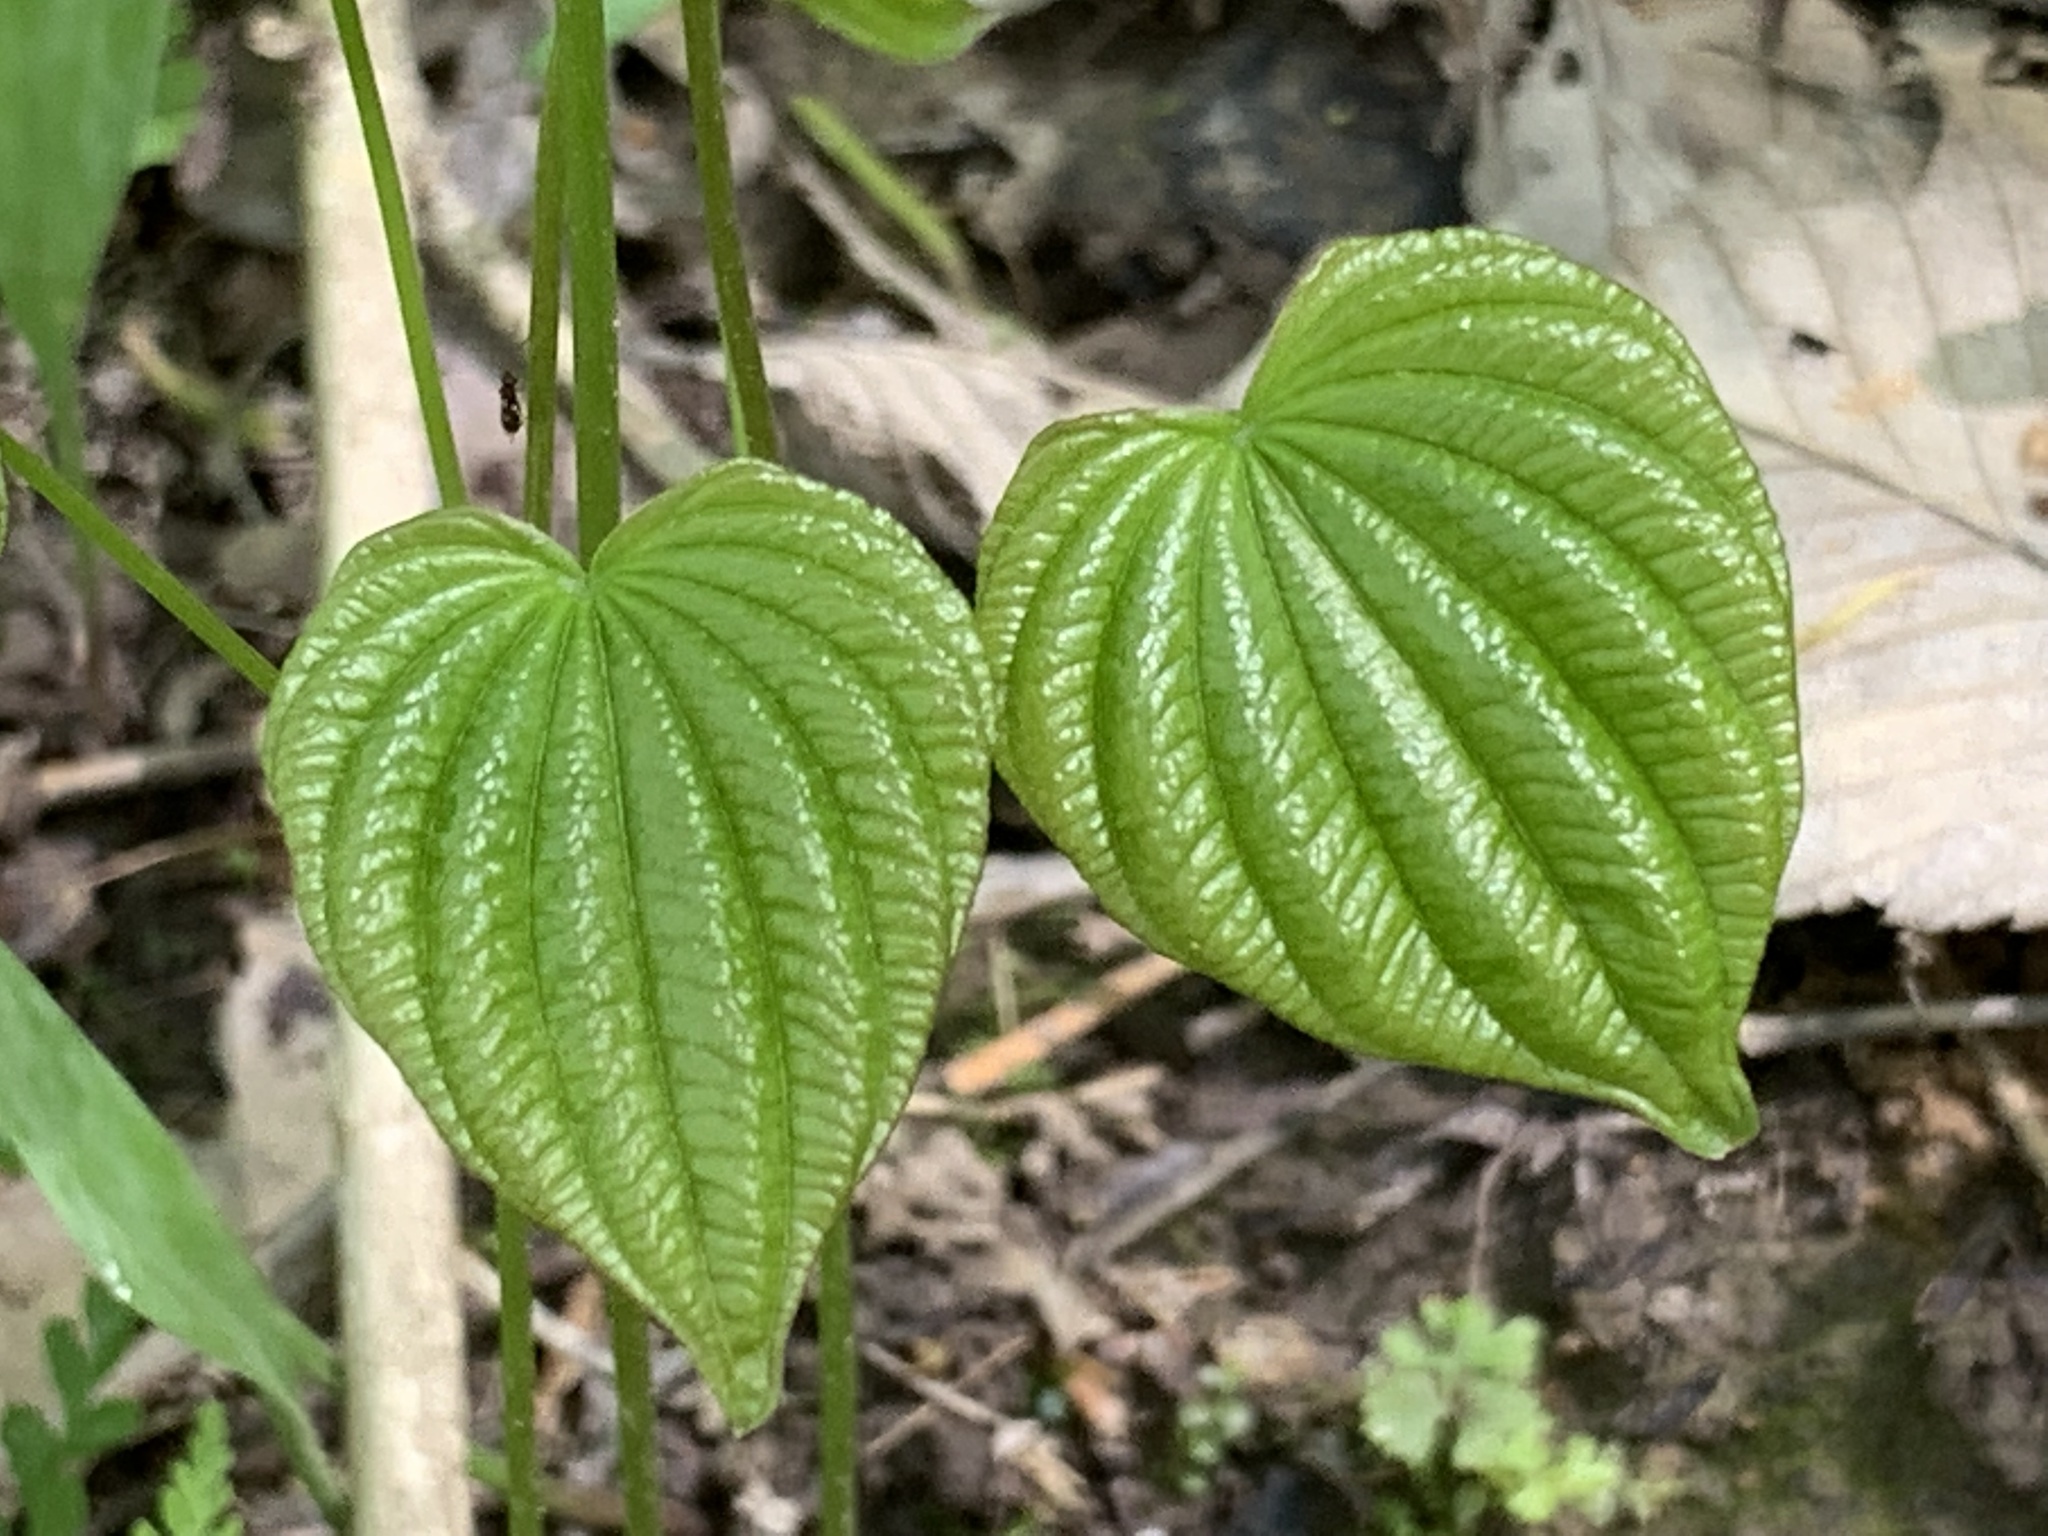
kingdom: Plantae
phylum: Tracheophyta
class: Liliopsida
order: Dioscoreales
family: Dioscoreaceae
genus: Dioscorea
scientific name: Dioscorea villosa
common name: Wild yam
